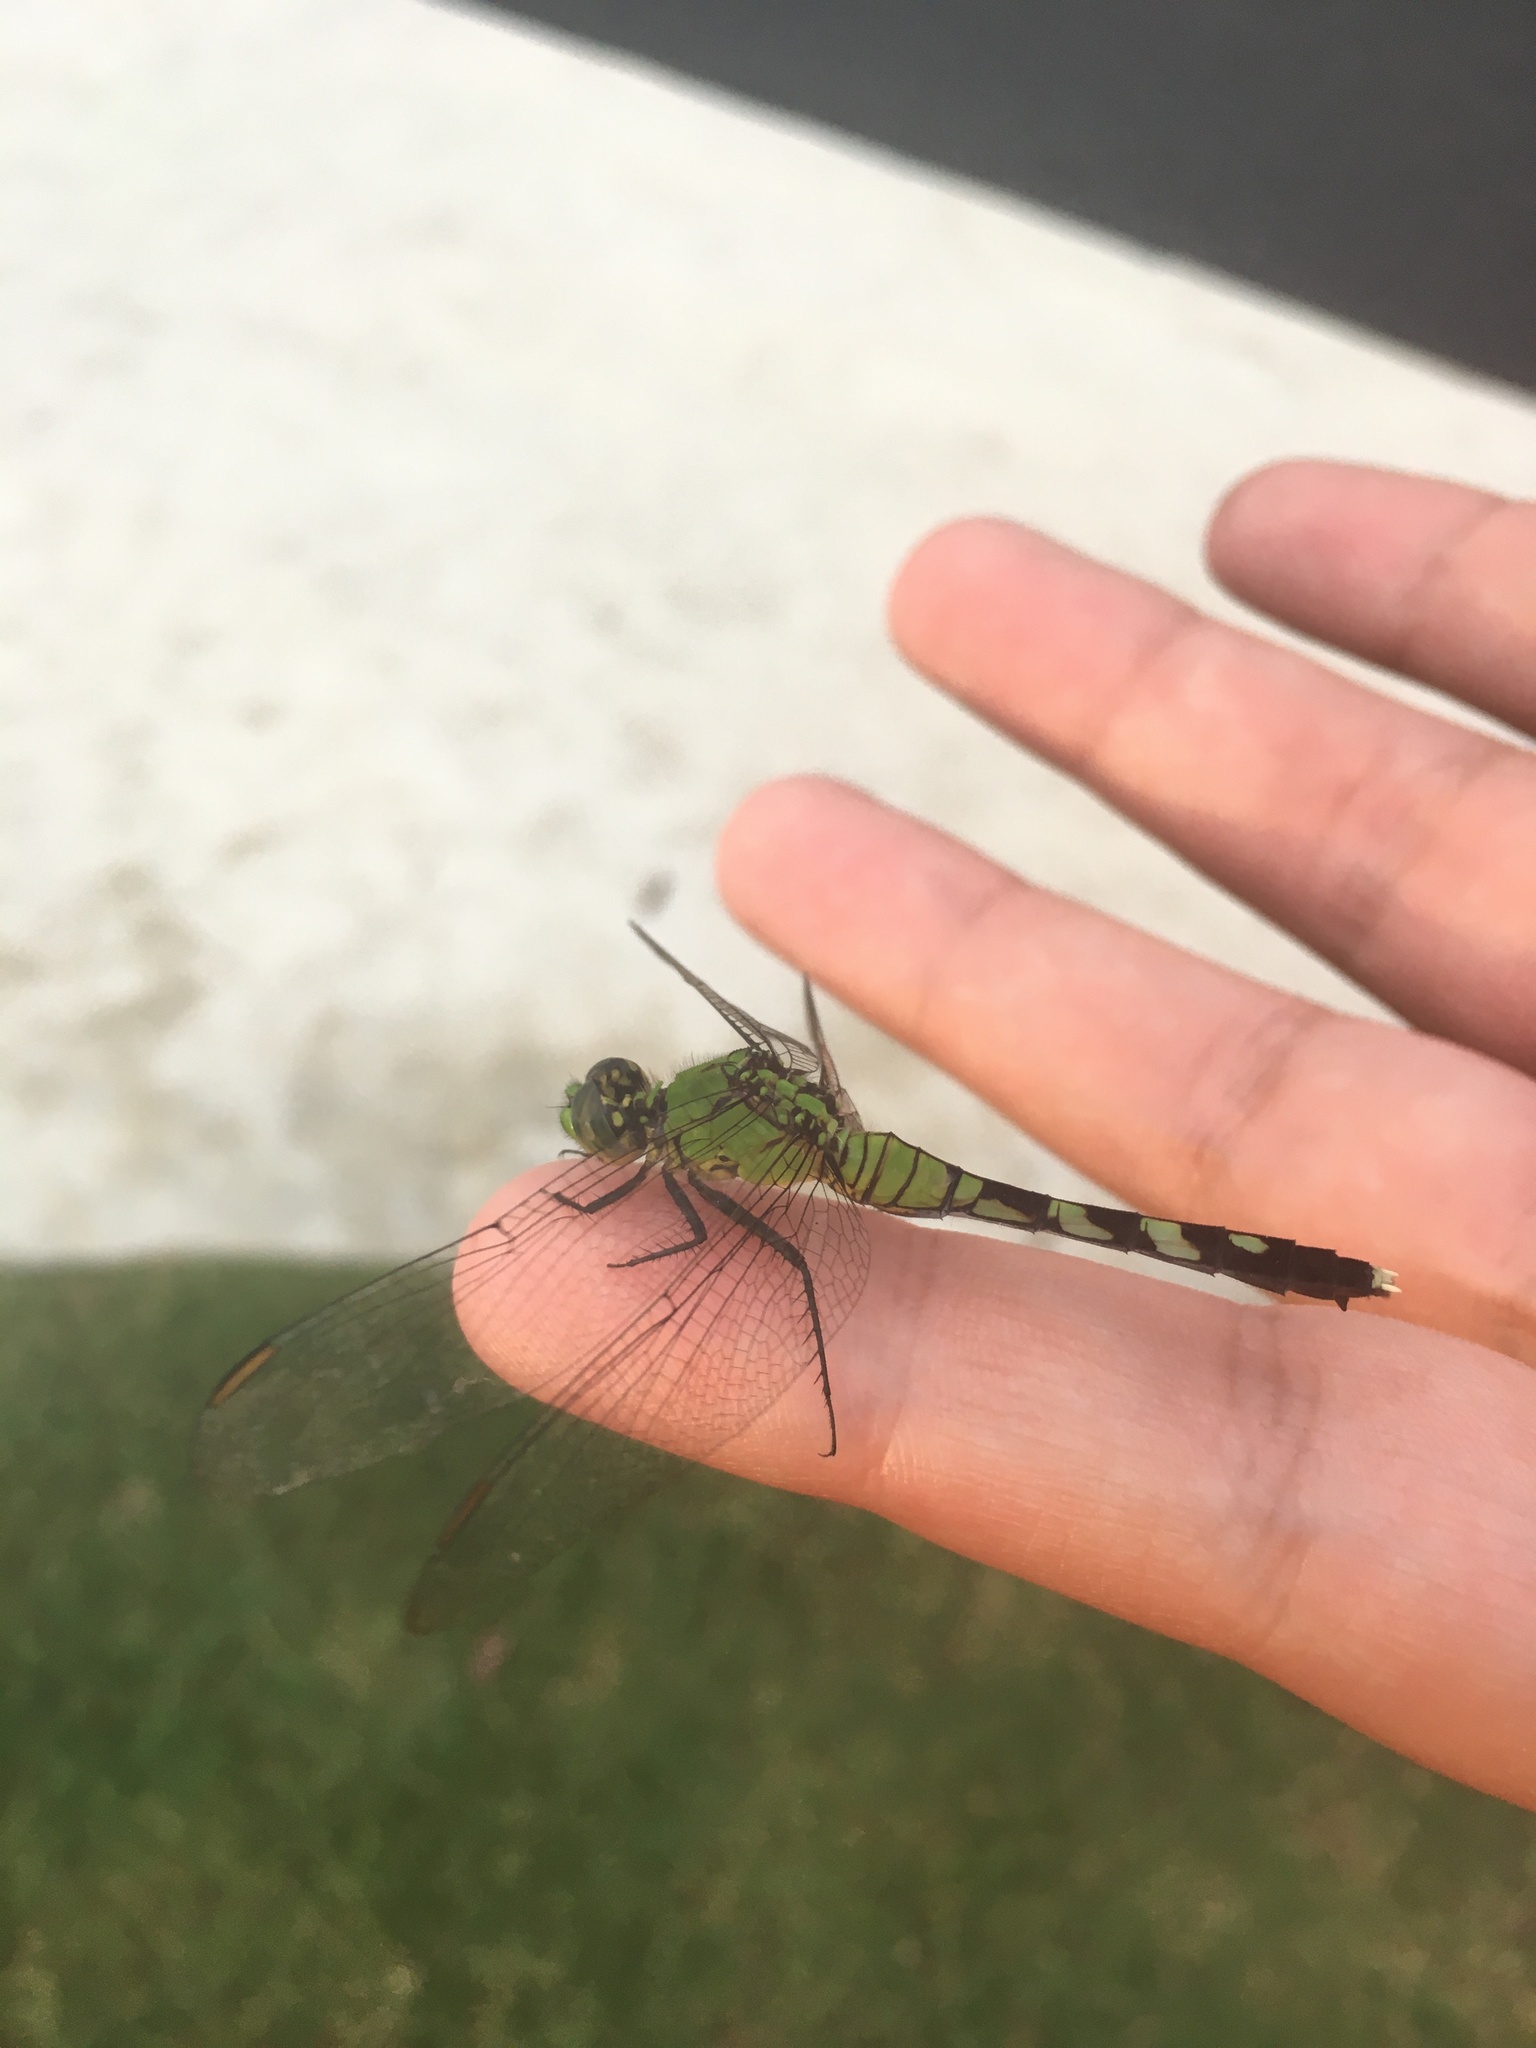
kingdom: Animalia
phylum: Arthropoda
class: Insecta
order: Odonata
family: Libellulidae
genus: Erythemis
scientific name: Erythemis simplicicollis
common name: Eastern pondhawk
